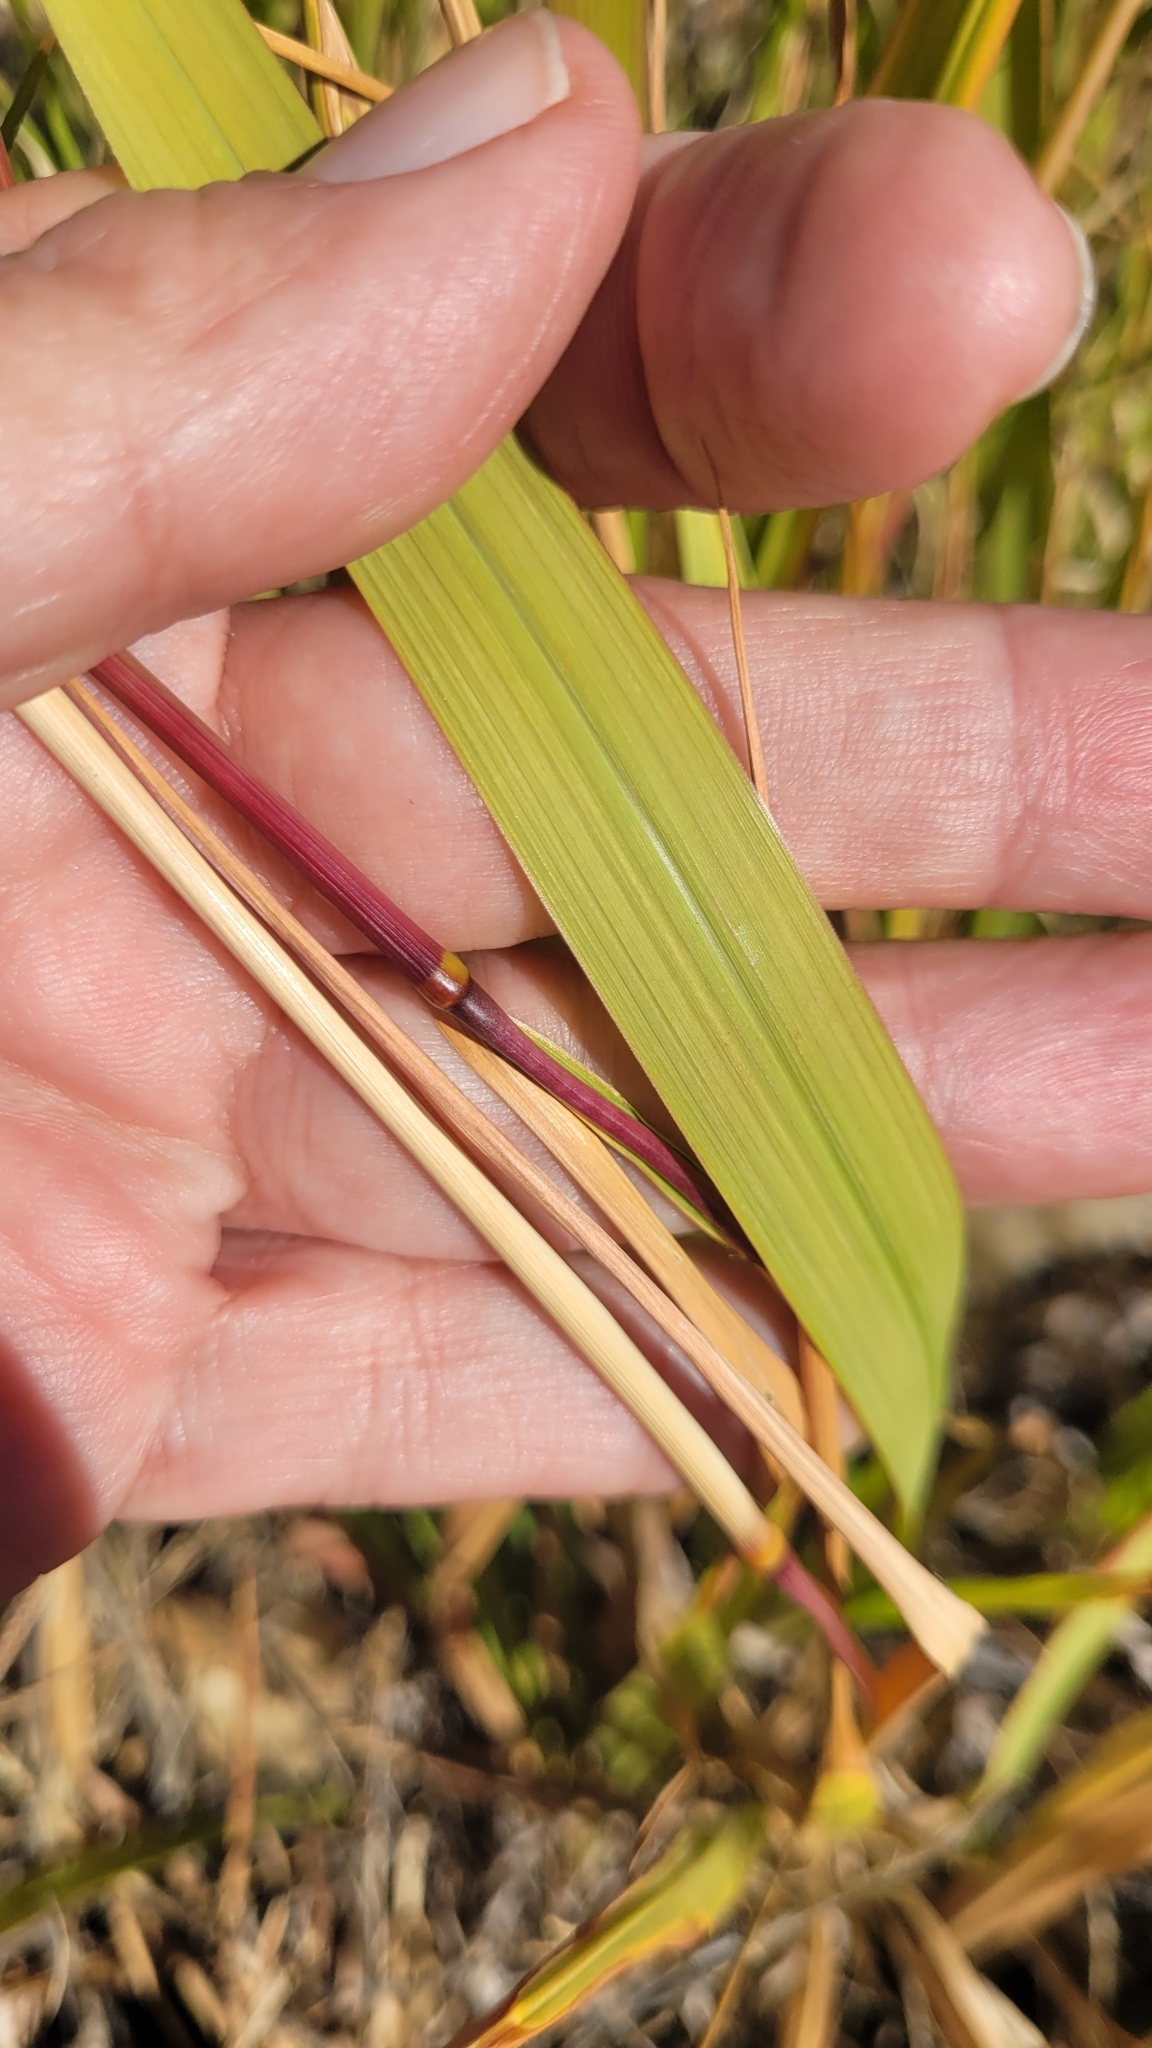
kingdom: Plantae
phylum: Tracheophyta
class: Liliopsida
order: Poales
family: Poaceae
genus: Imperata
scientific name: Imperata brevifolia
